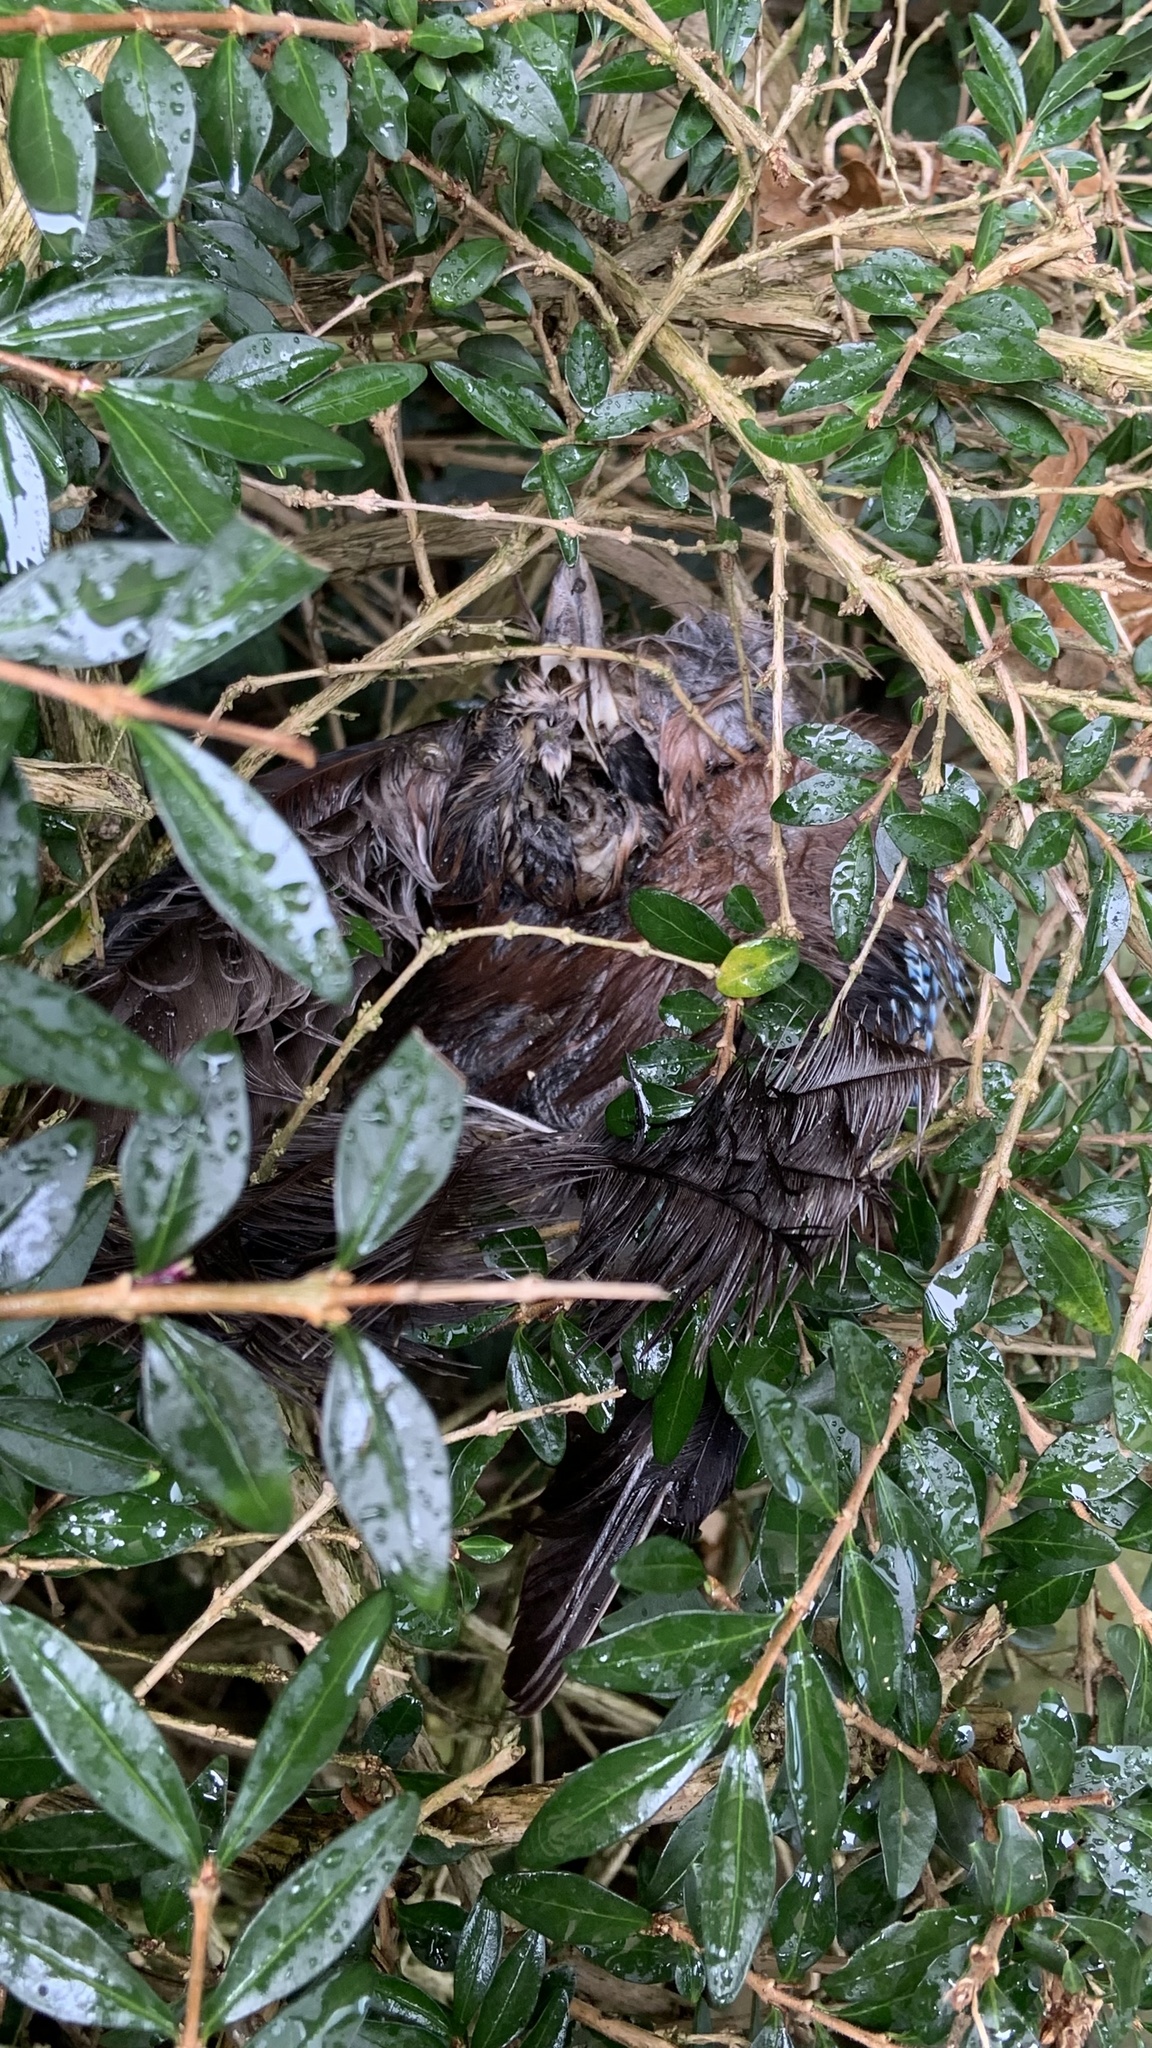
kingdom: Animalia
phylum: Chordata
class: Aves
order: Passeriformes
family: Corvidae
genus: Garrulus
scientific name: Garrulus glandarius
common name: Eurasian jay
